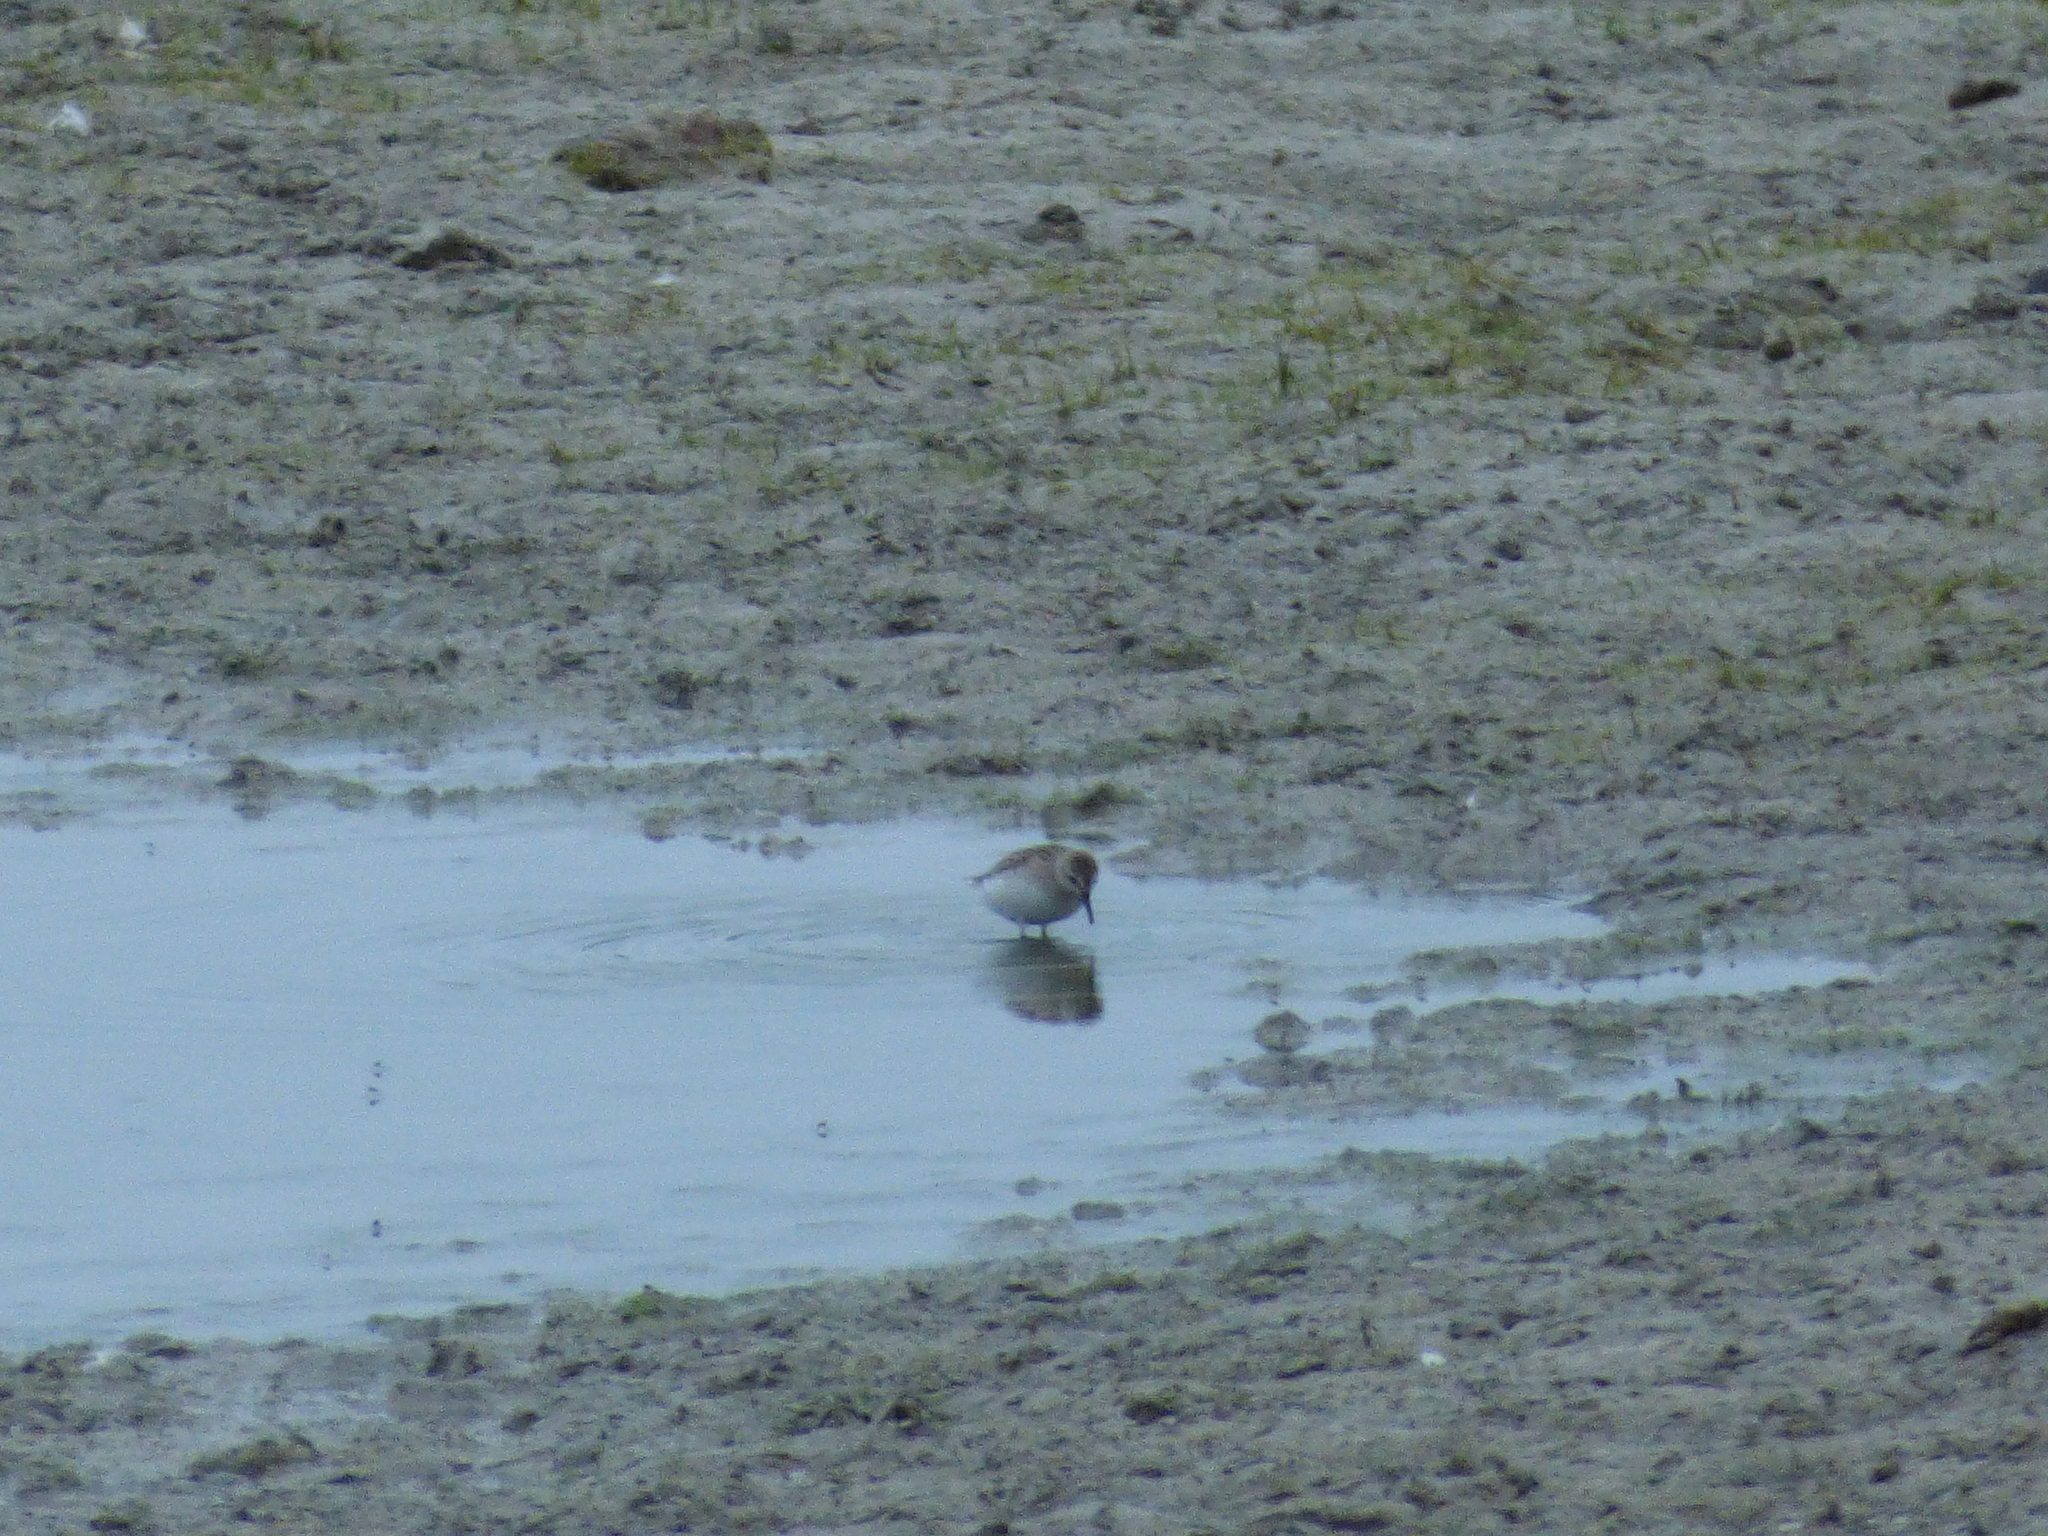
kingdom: Animalia
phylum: Chordata
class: Aves
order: Charadriiformes
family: Scolopacidae
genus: Calidris
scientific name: Calidris pusilla
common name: Semipalmated sandpiper
